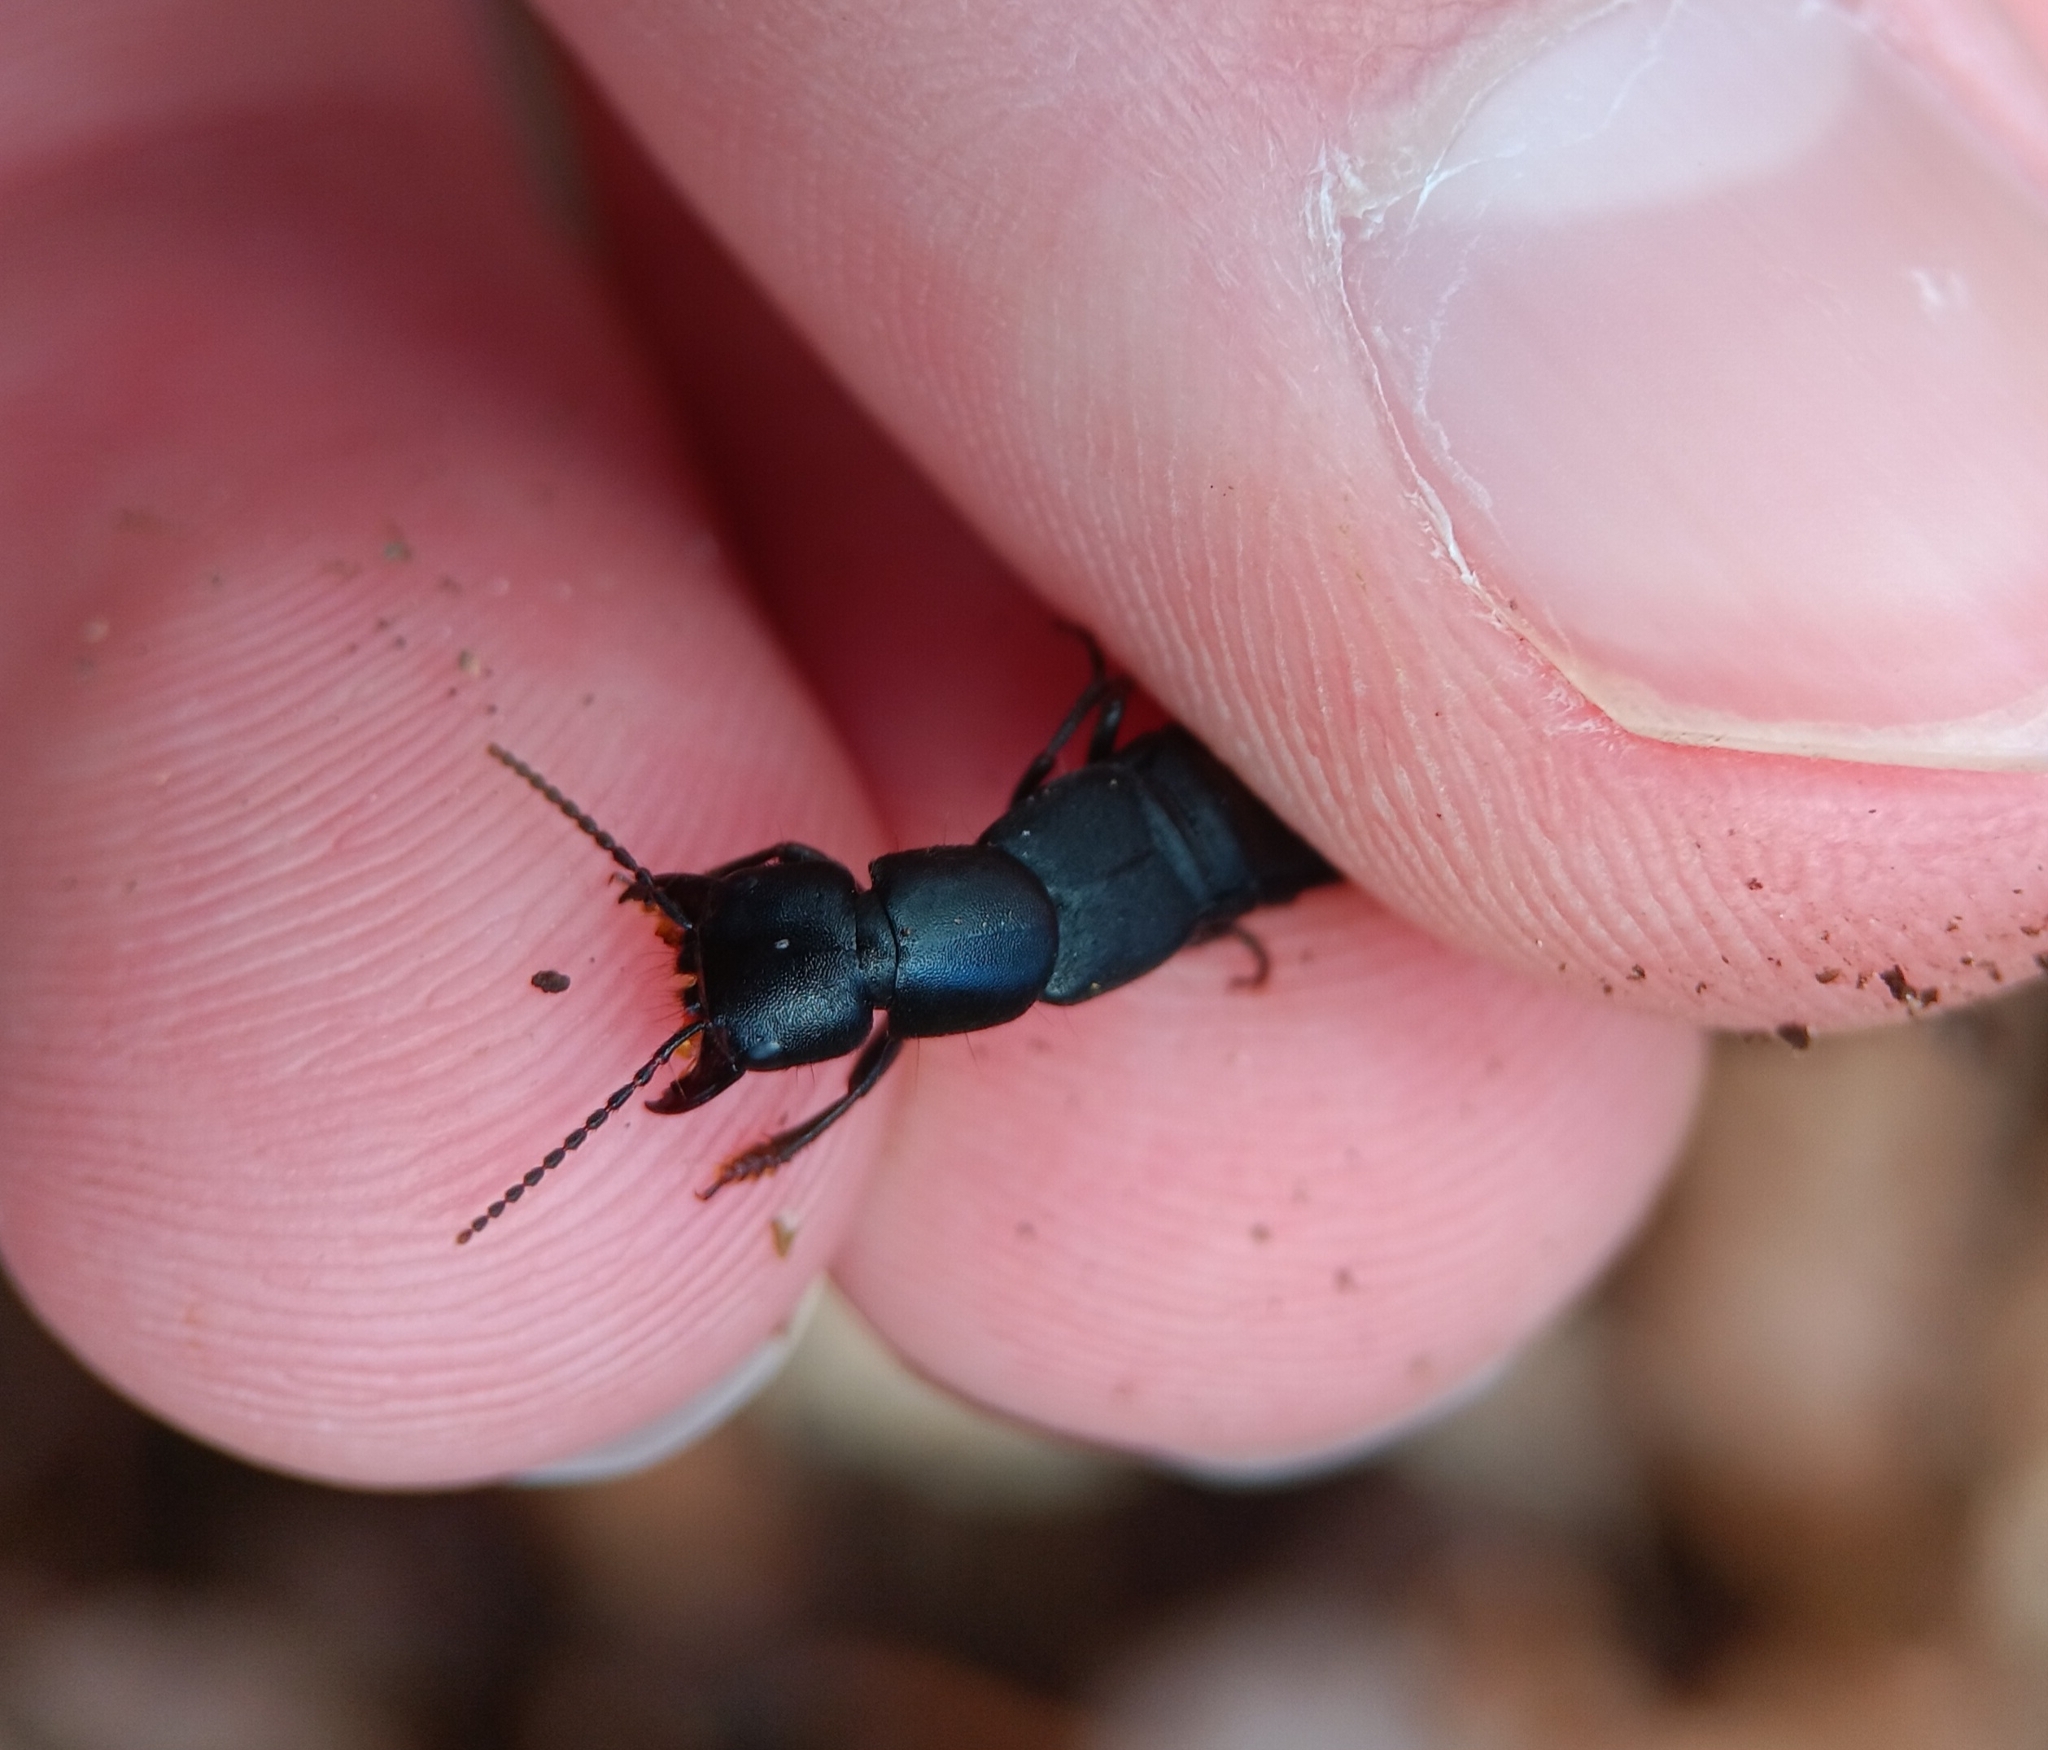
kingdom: Animalia
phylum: Arthropoda
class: Insecta
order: Coleoptera
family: Staphylinidae
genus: Ocypus
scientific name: Ocypus nitens
